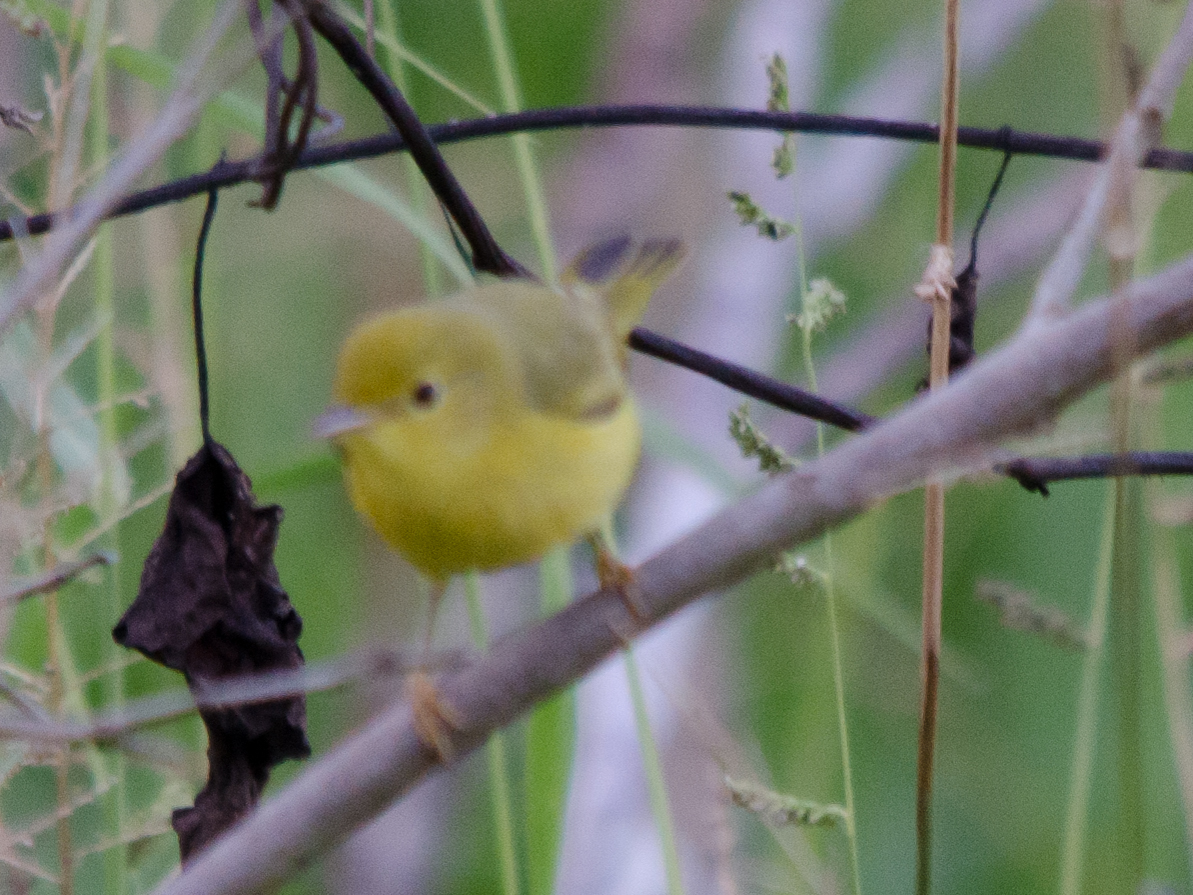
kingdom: Animalia
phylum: Chordata
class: Aves
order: Passeriformes
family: Parulidae
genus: Setophaga
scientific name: Setophaga petechia
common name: Yellow warbler
